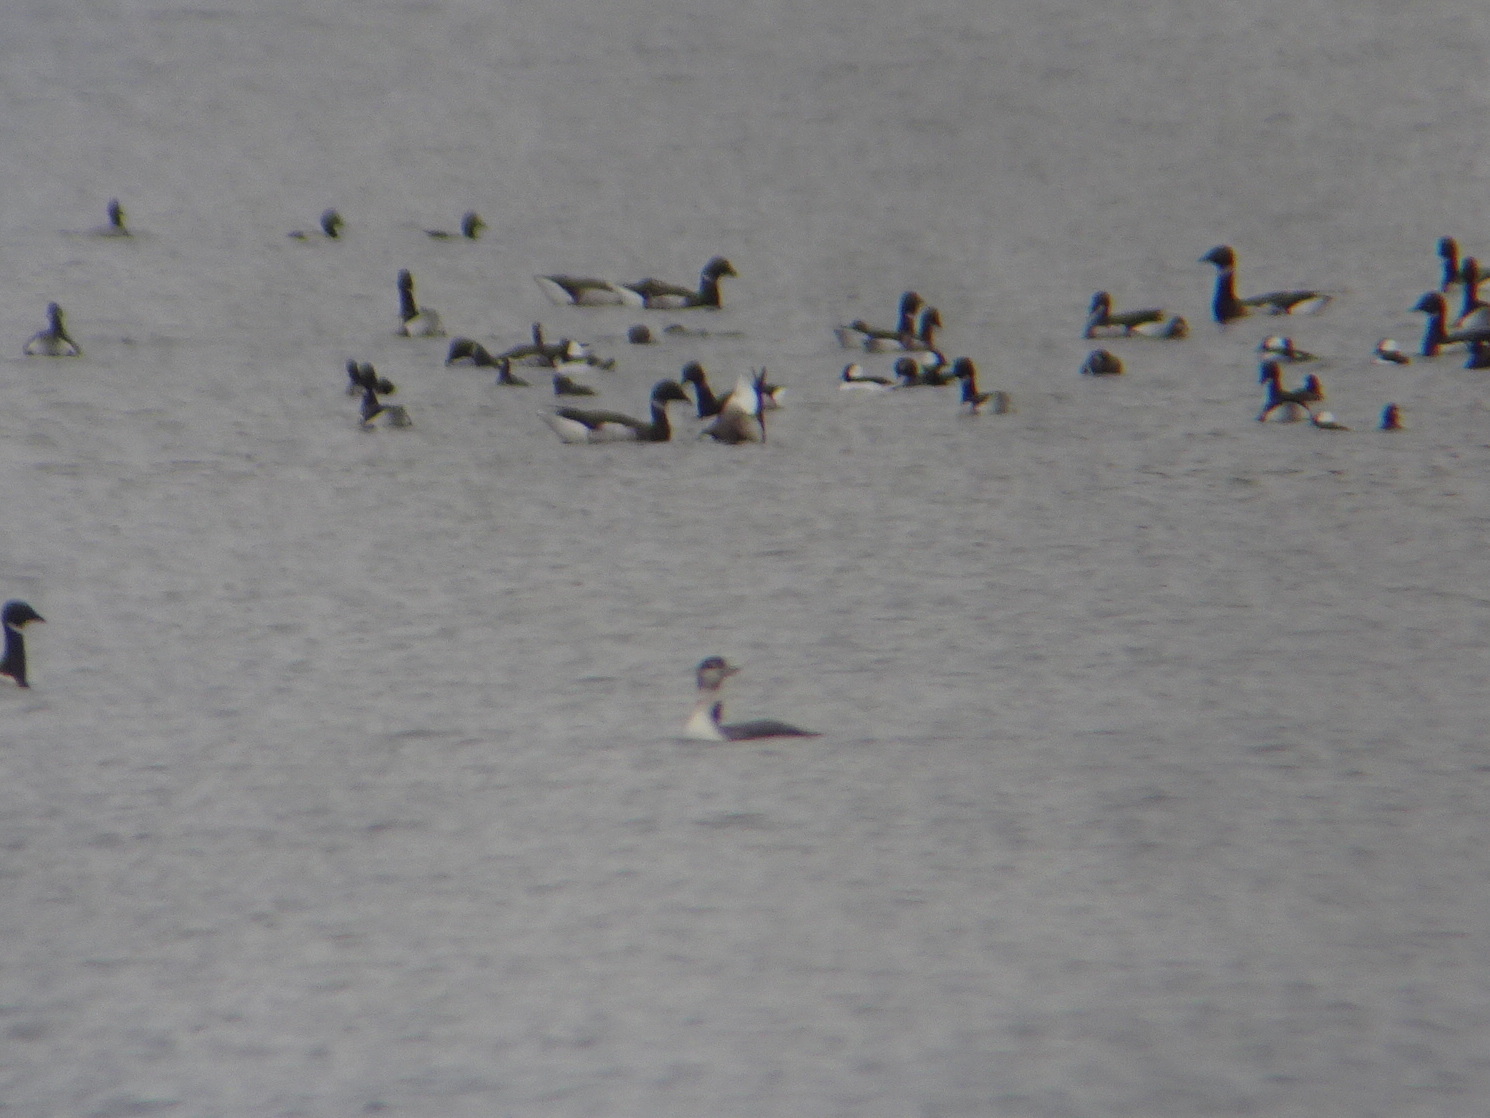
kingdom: Animalia
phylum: Chordata
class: Aves
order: Anseriformes
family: Anatidae
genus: Bucephala
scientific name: Bucephala albeola
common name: Bufflehead
